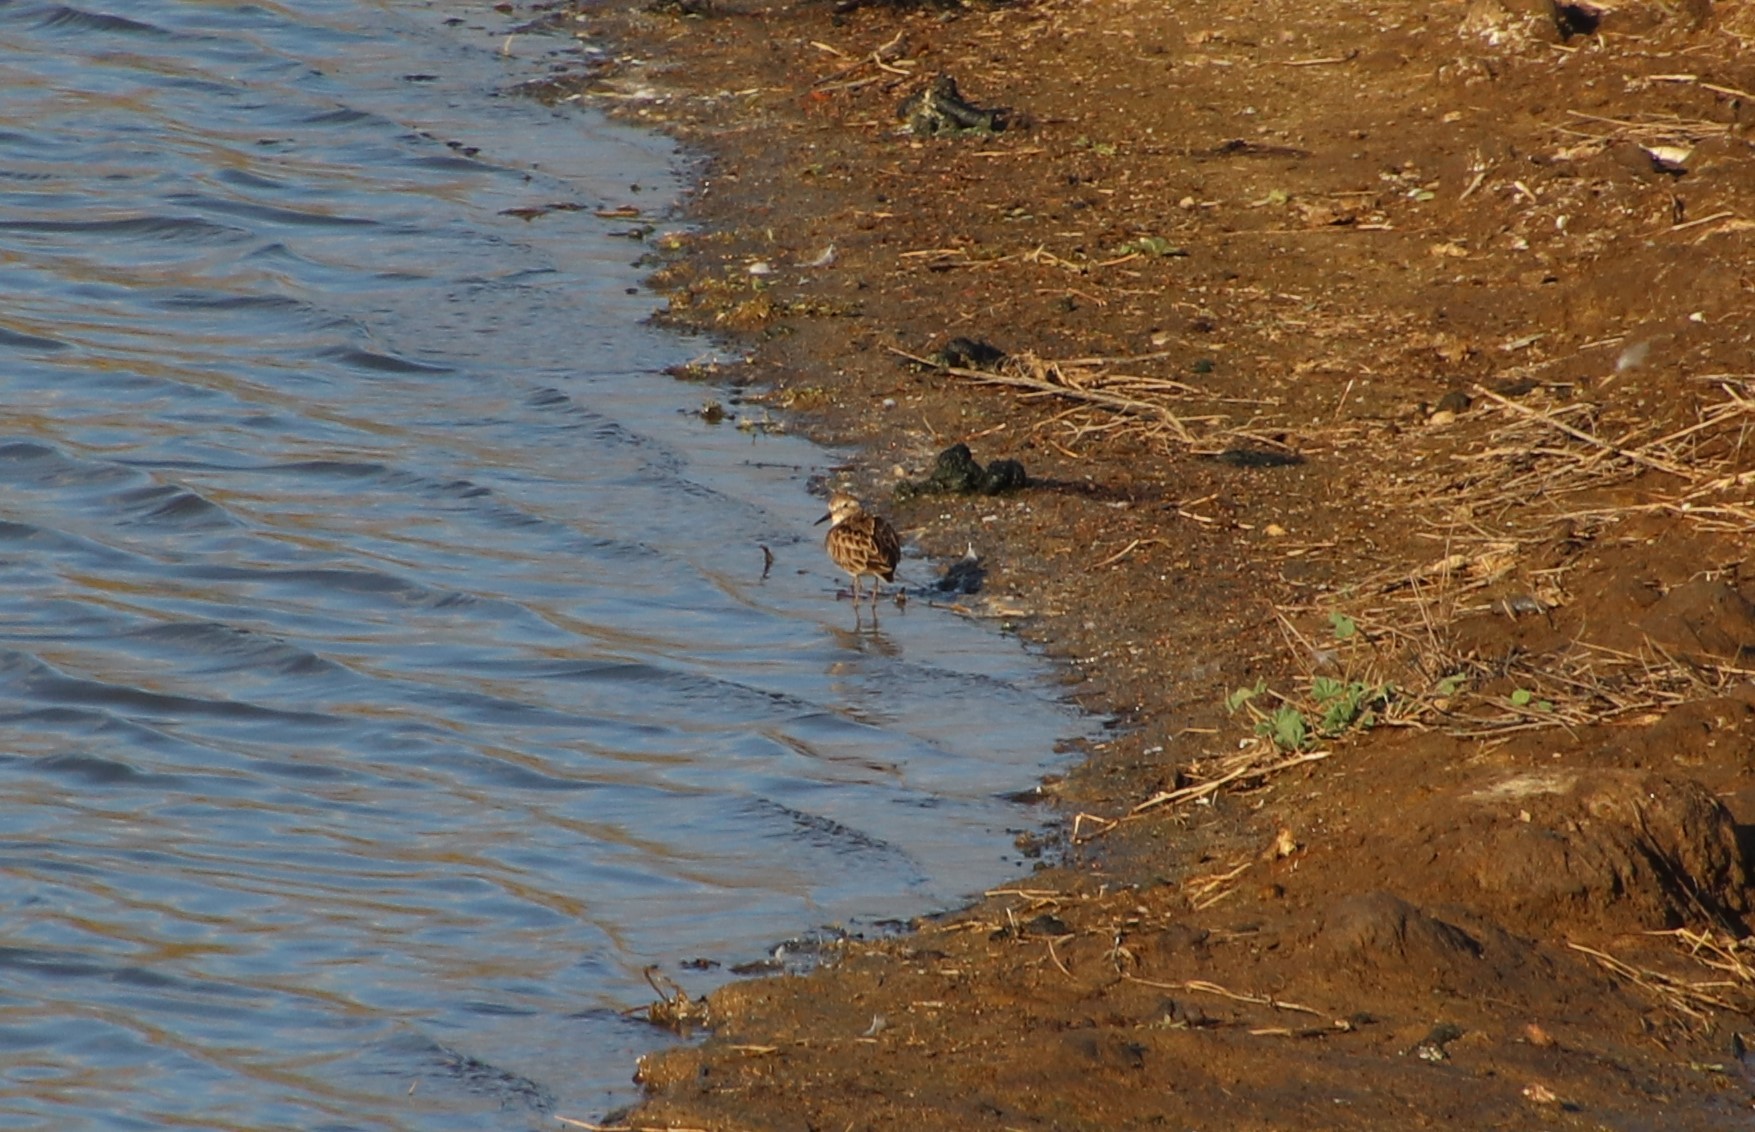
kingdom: Animalia
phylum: Chordata
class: Aves
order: Charadriiformes
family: Scolopacidae
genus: Calidris
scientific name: Calidris minutilla
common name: Least sandpiper
